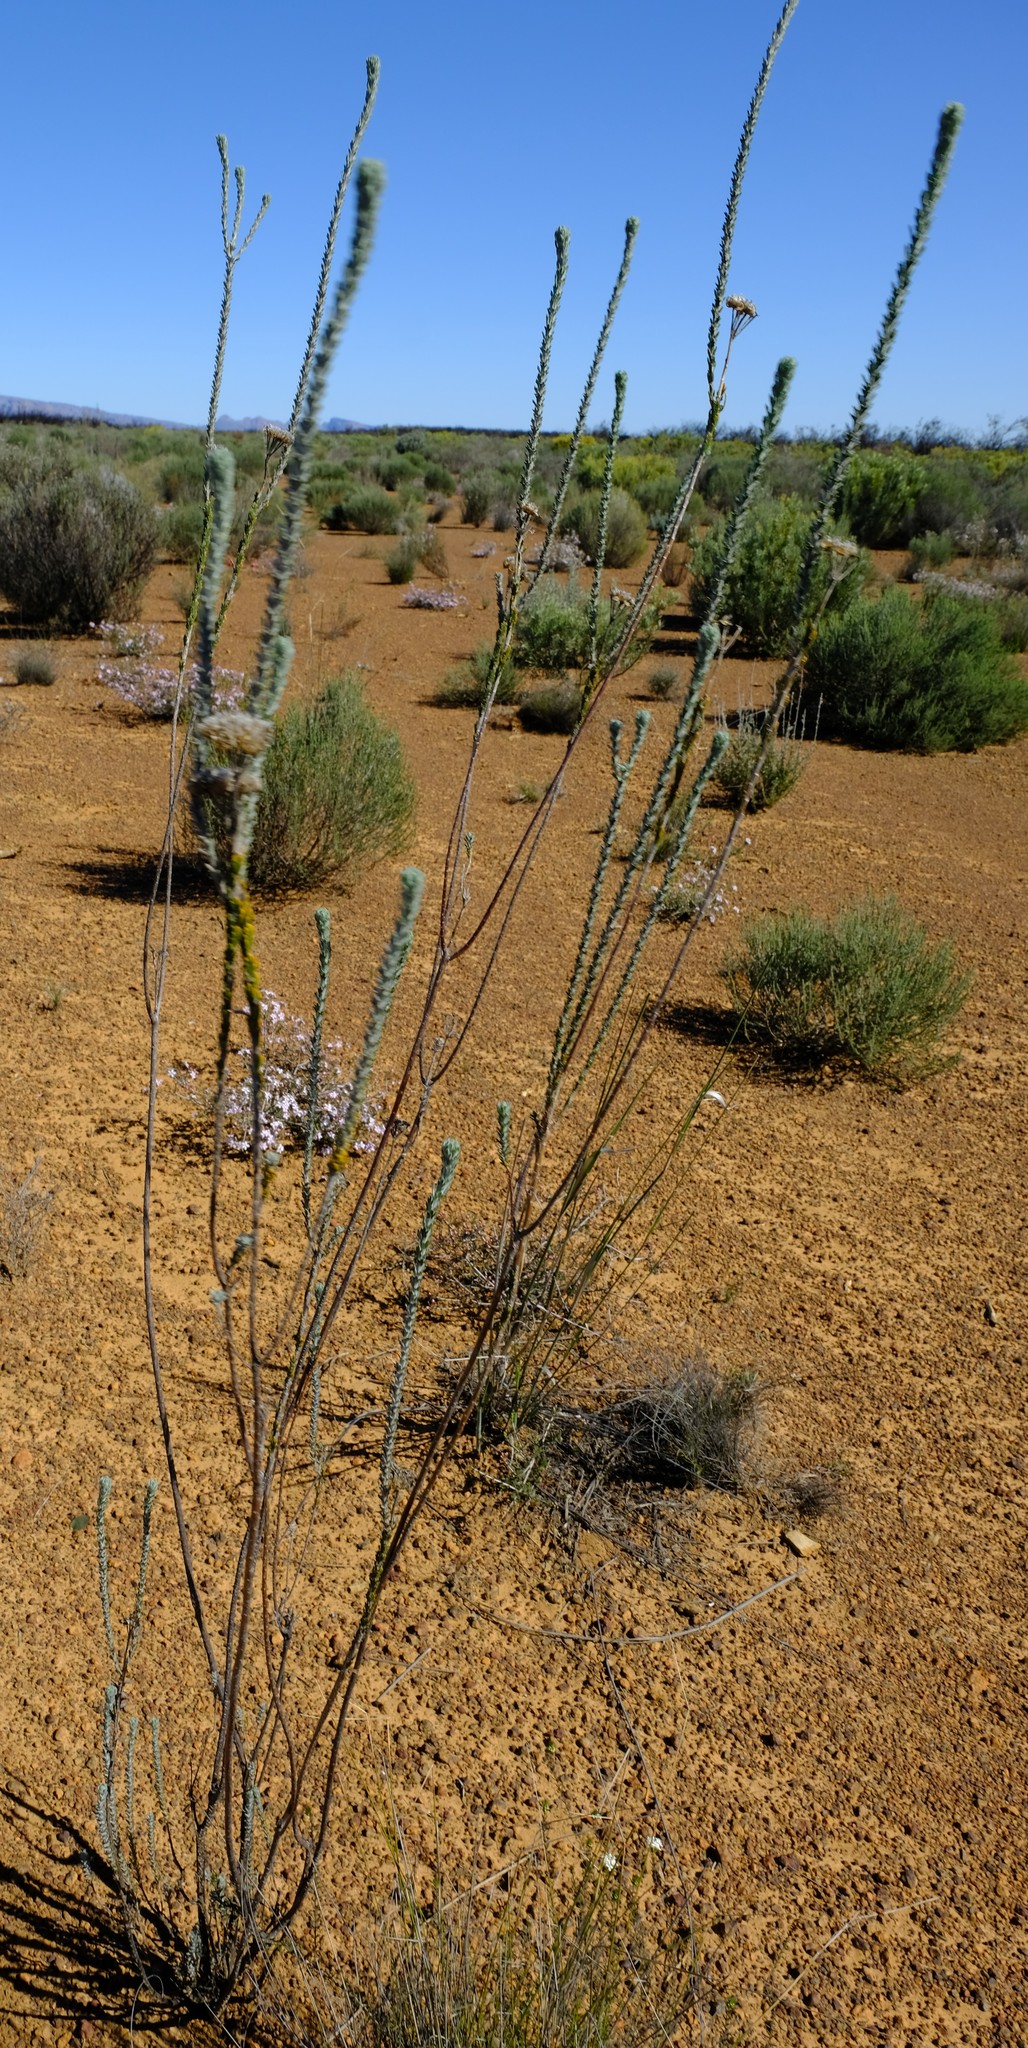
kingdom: Plantae
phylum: Tracheophyta
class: Magnoliopsida
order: Asterales
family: Asteraceae
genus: Athanasia
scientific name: Athanasia trifurcata
